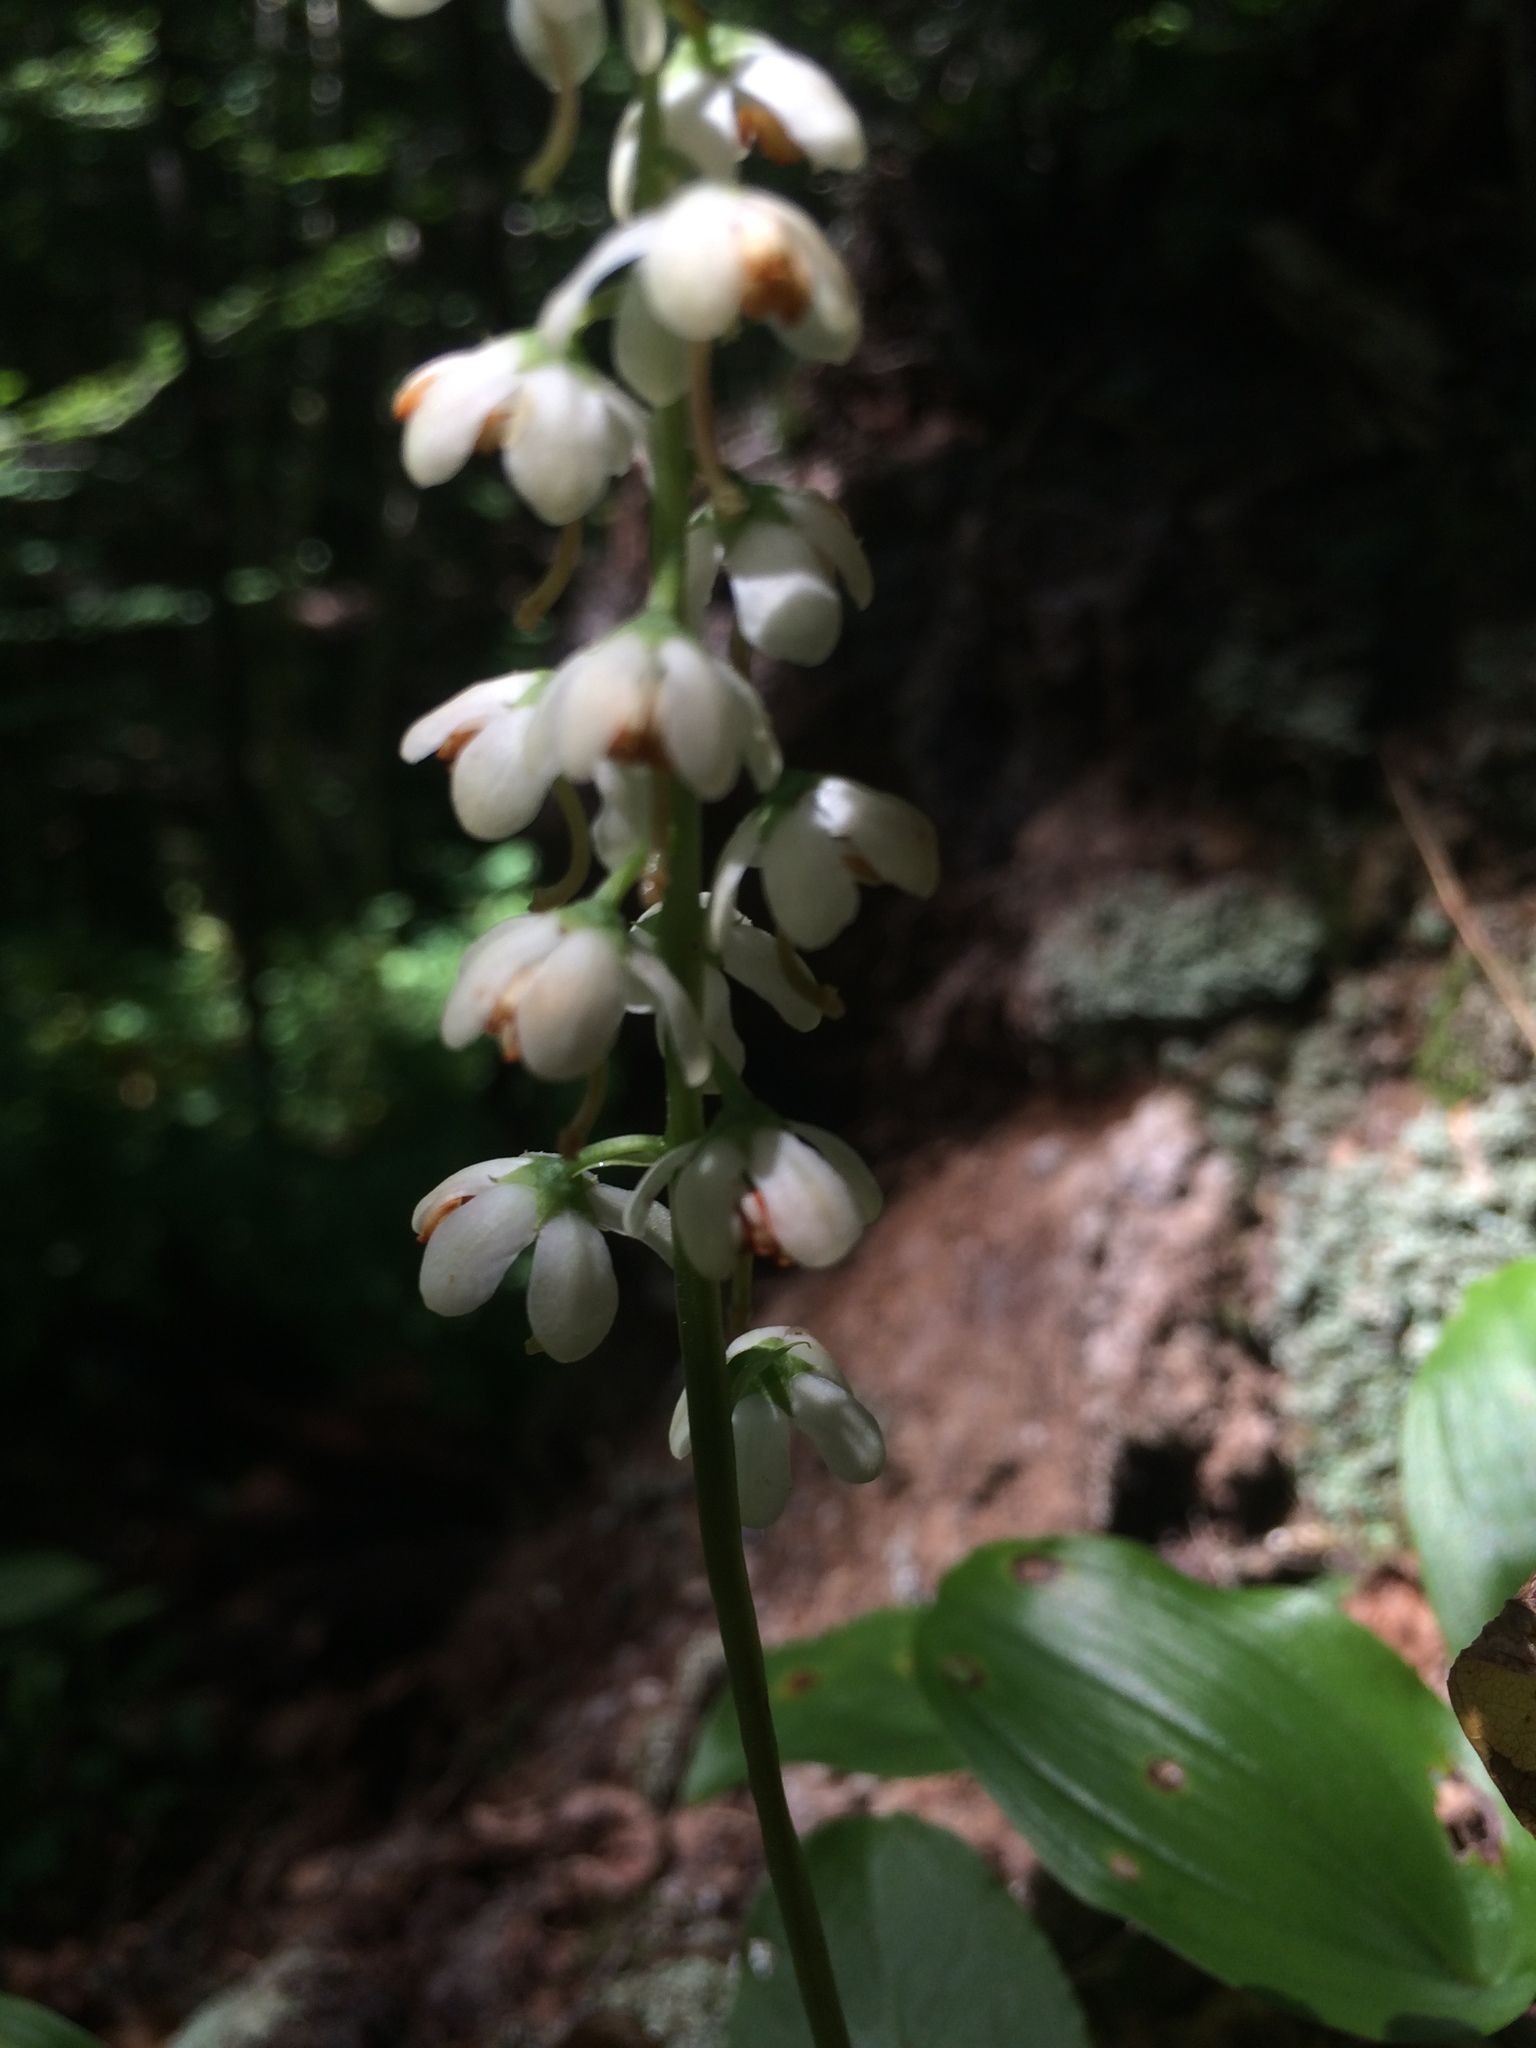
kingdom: Plantae
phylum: Tracheophyta
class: Magnoliopsida
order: Ericales
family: Ericaceae
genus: Pyrola
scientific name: Pyrola elliptica
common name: Shinleaf
